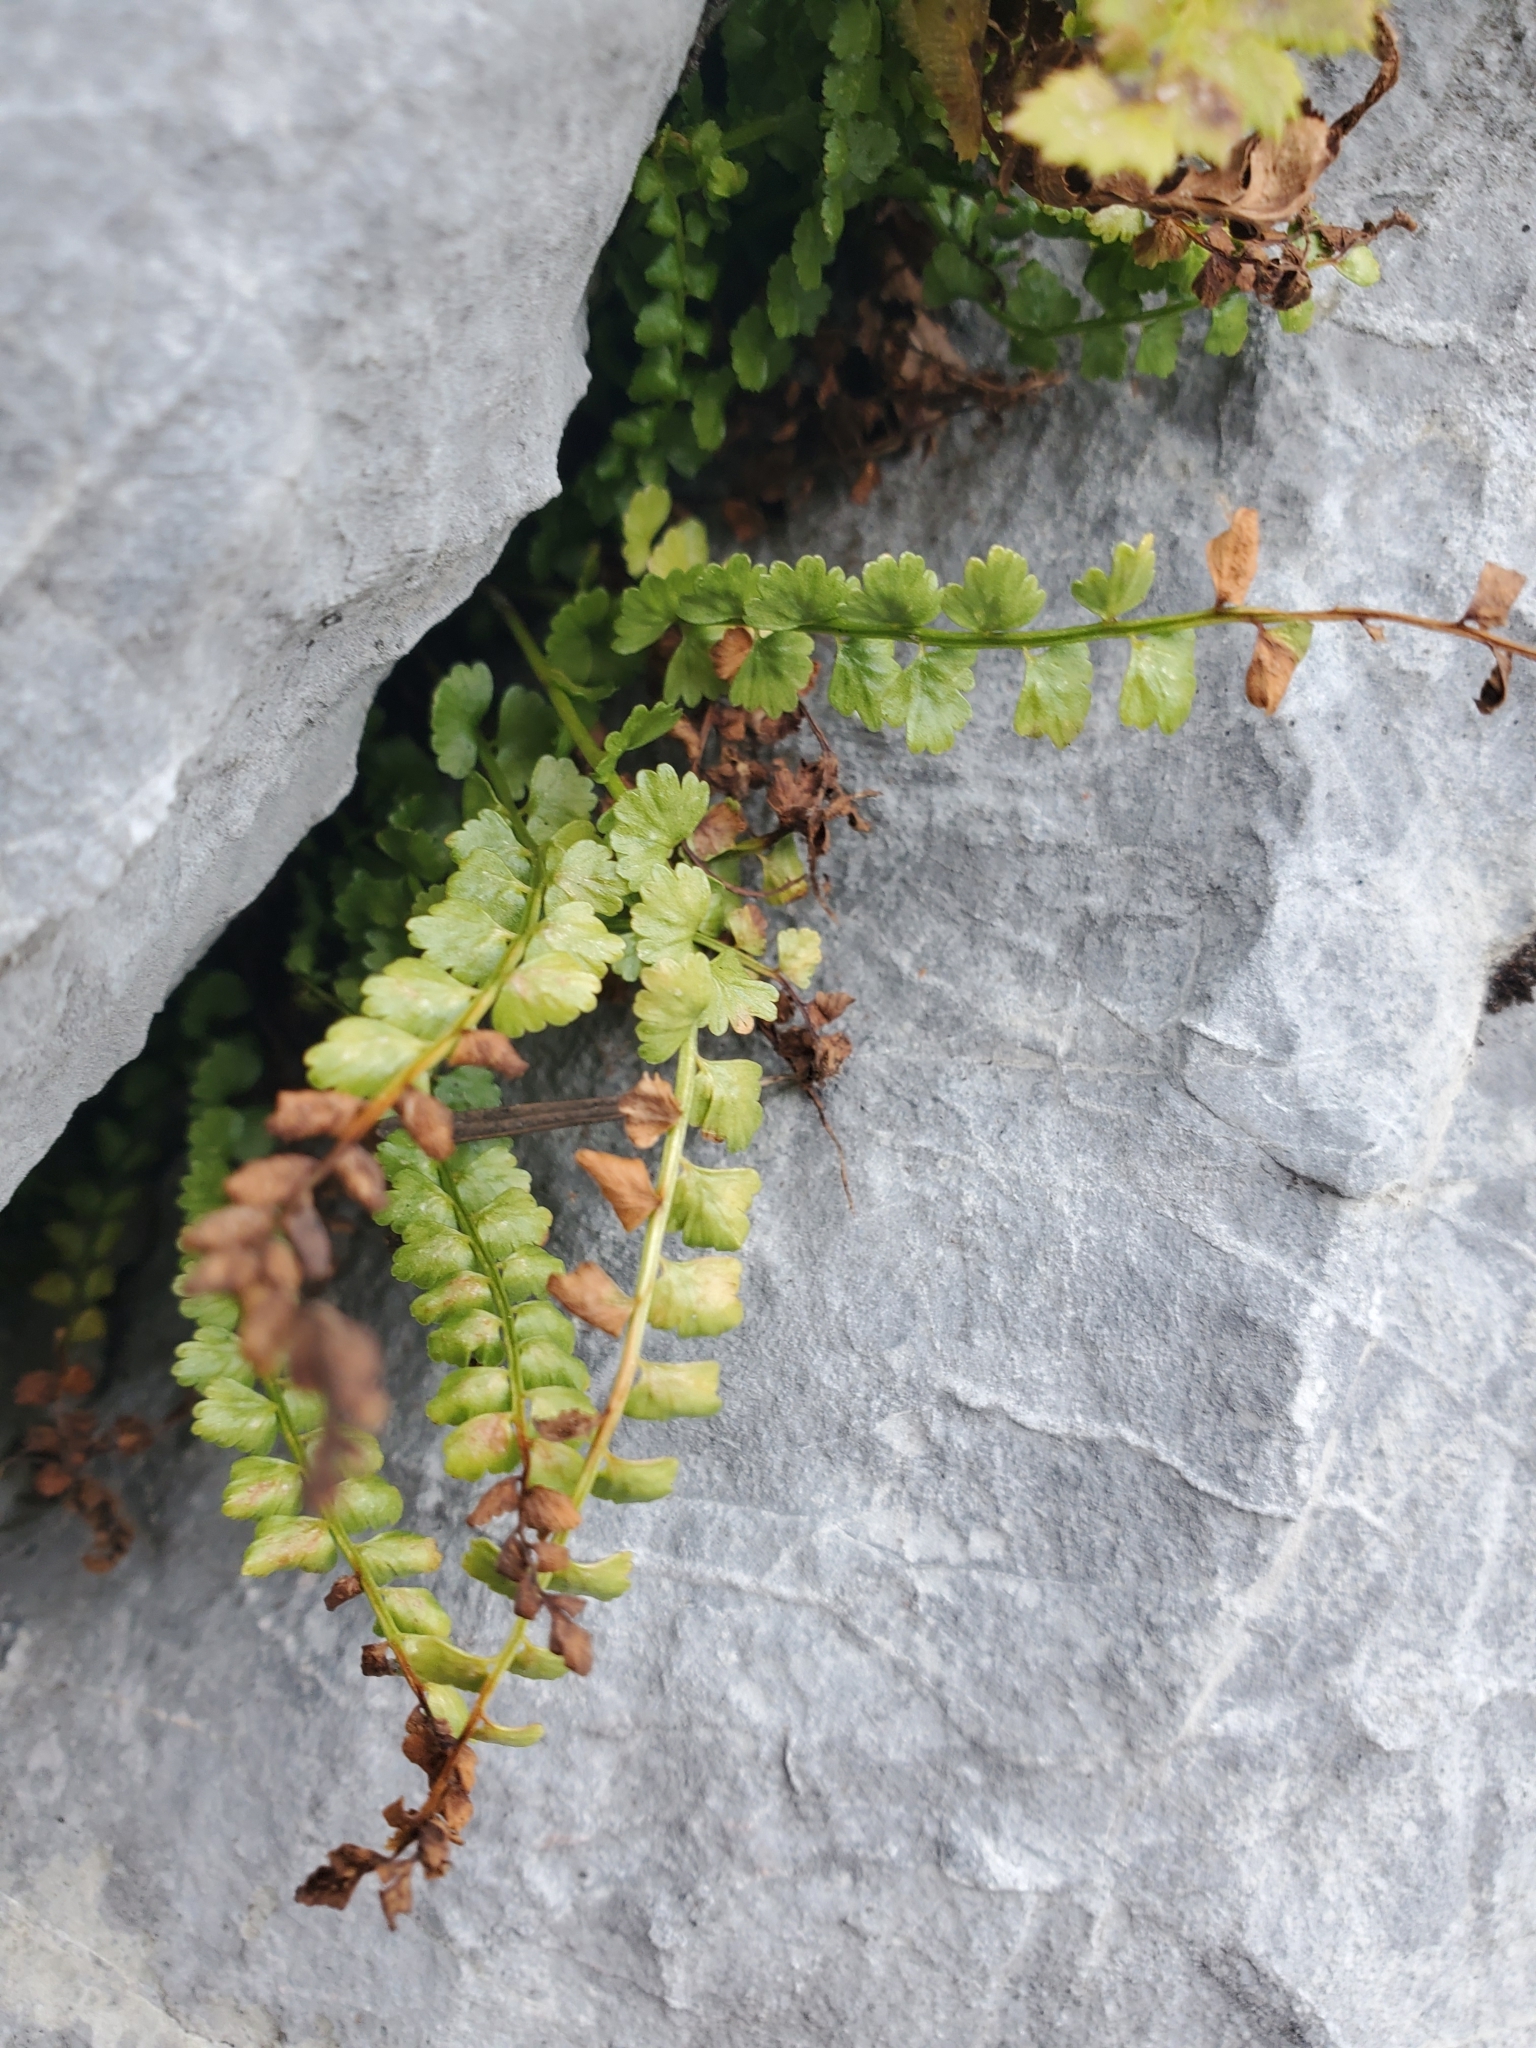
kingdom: Plantae
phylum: Tracheophyta
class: Polypodiopsida
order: Polypodiales
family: Aspleniaceae
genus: Asplenium
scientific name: Asplenium viride
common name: Green spleenwort
